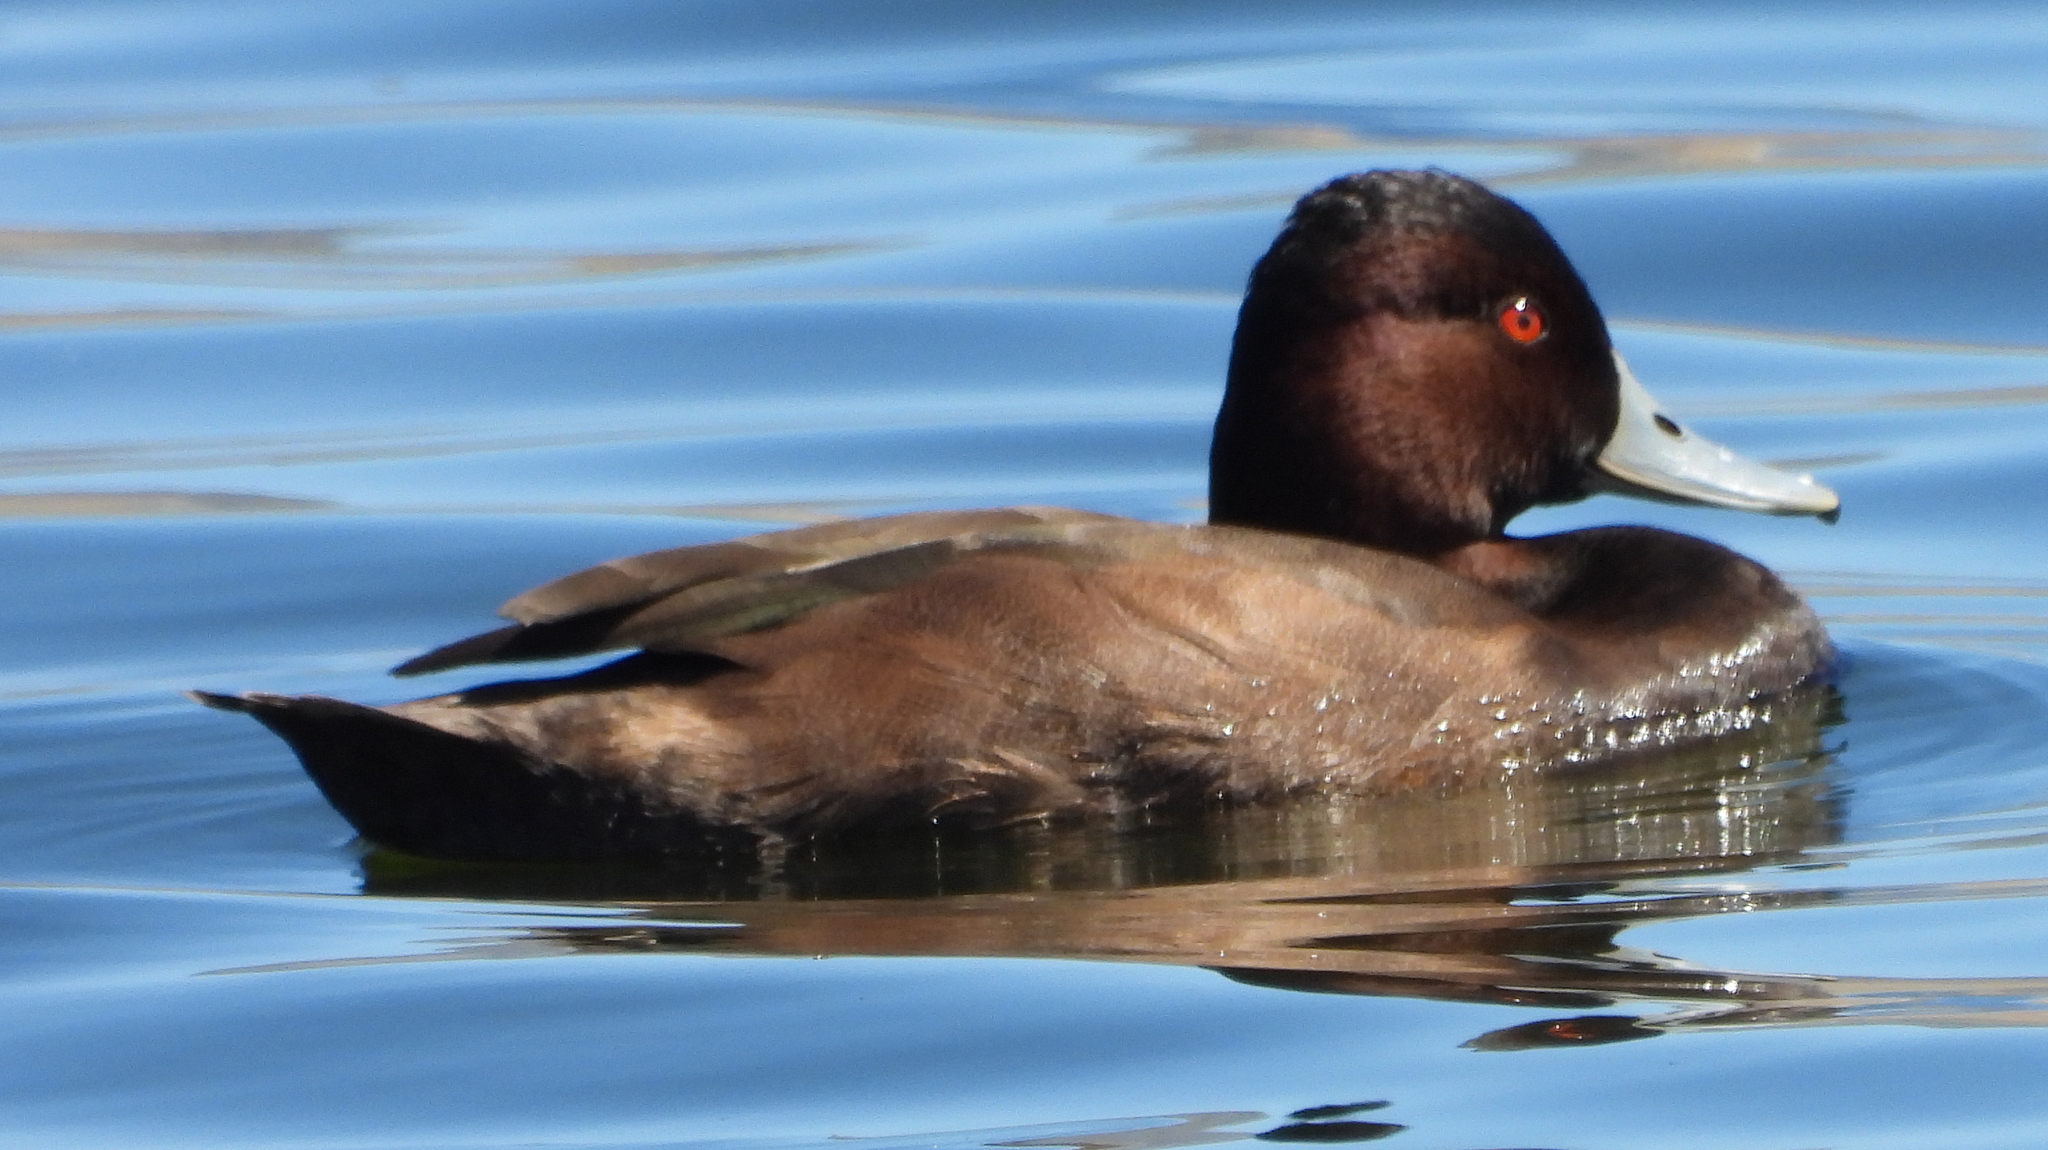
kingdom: Animalia
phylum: Chordata
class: Aves
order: Anseriformes
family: Anatidae
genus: Netta
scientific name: Netta erythrophthalma
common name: Southern pochard
